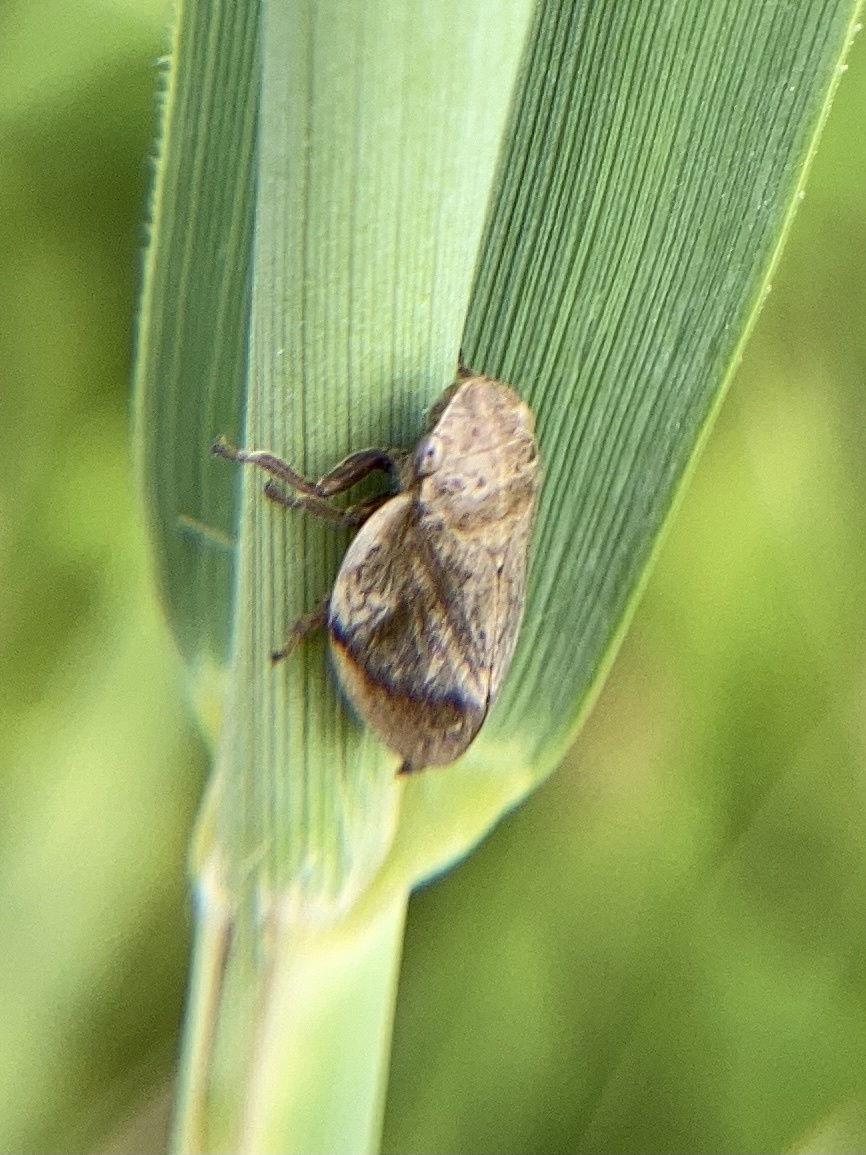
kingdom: Animalia
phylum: Arthropoda
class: Insecta
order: Hemiptera
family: Aphrophoridae
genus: Lepyronia
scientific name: Lepyronia coleoptrata
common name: Leafhopper
